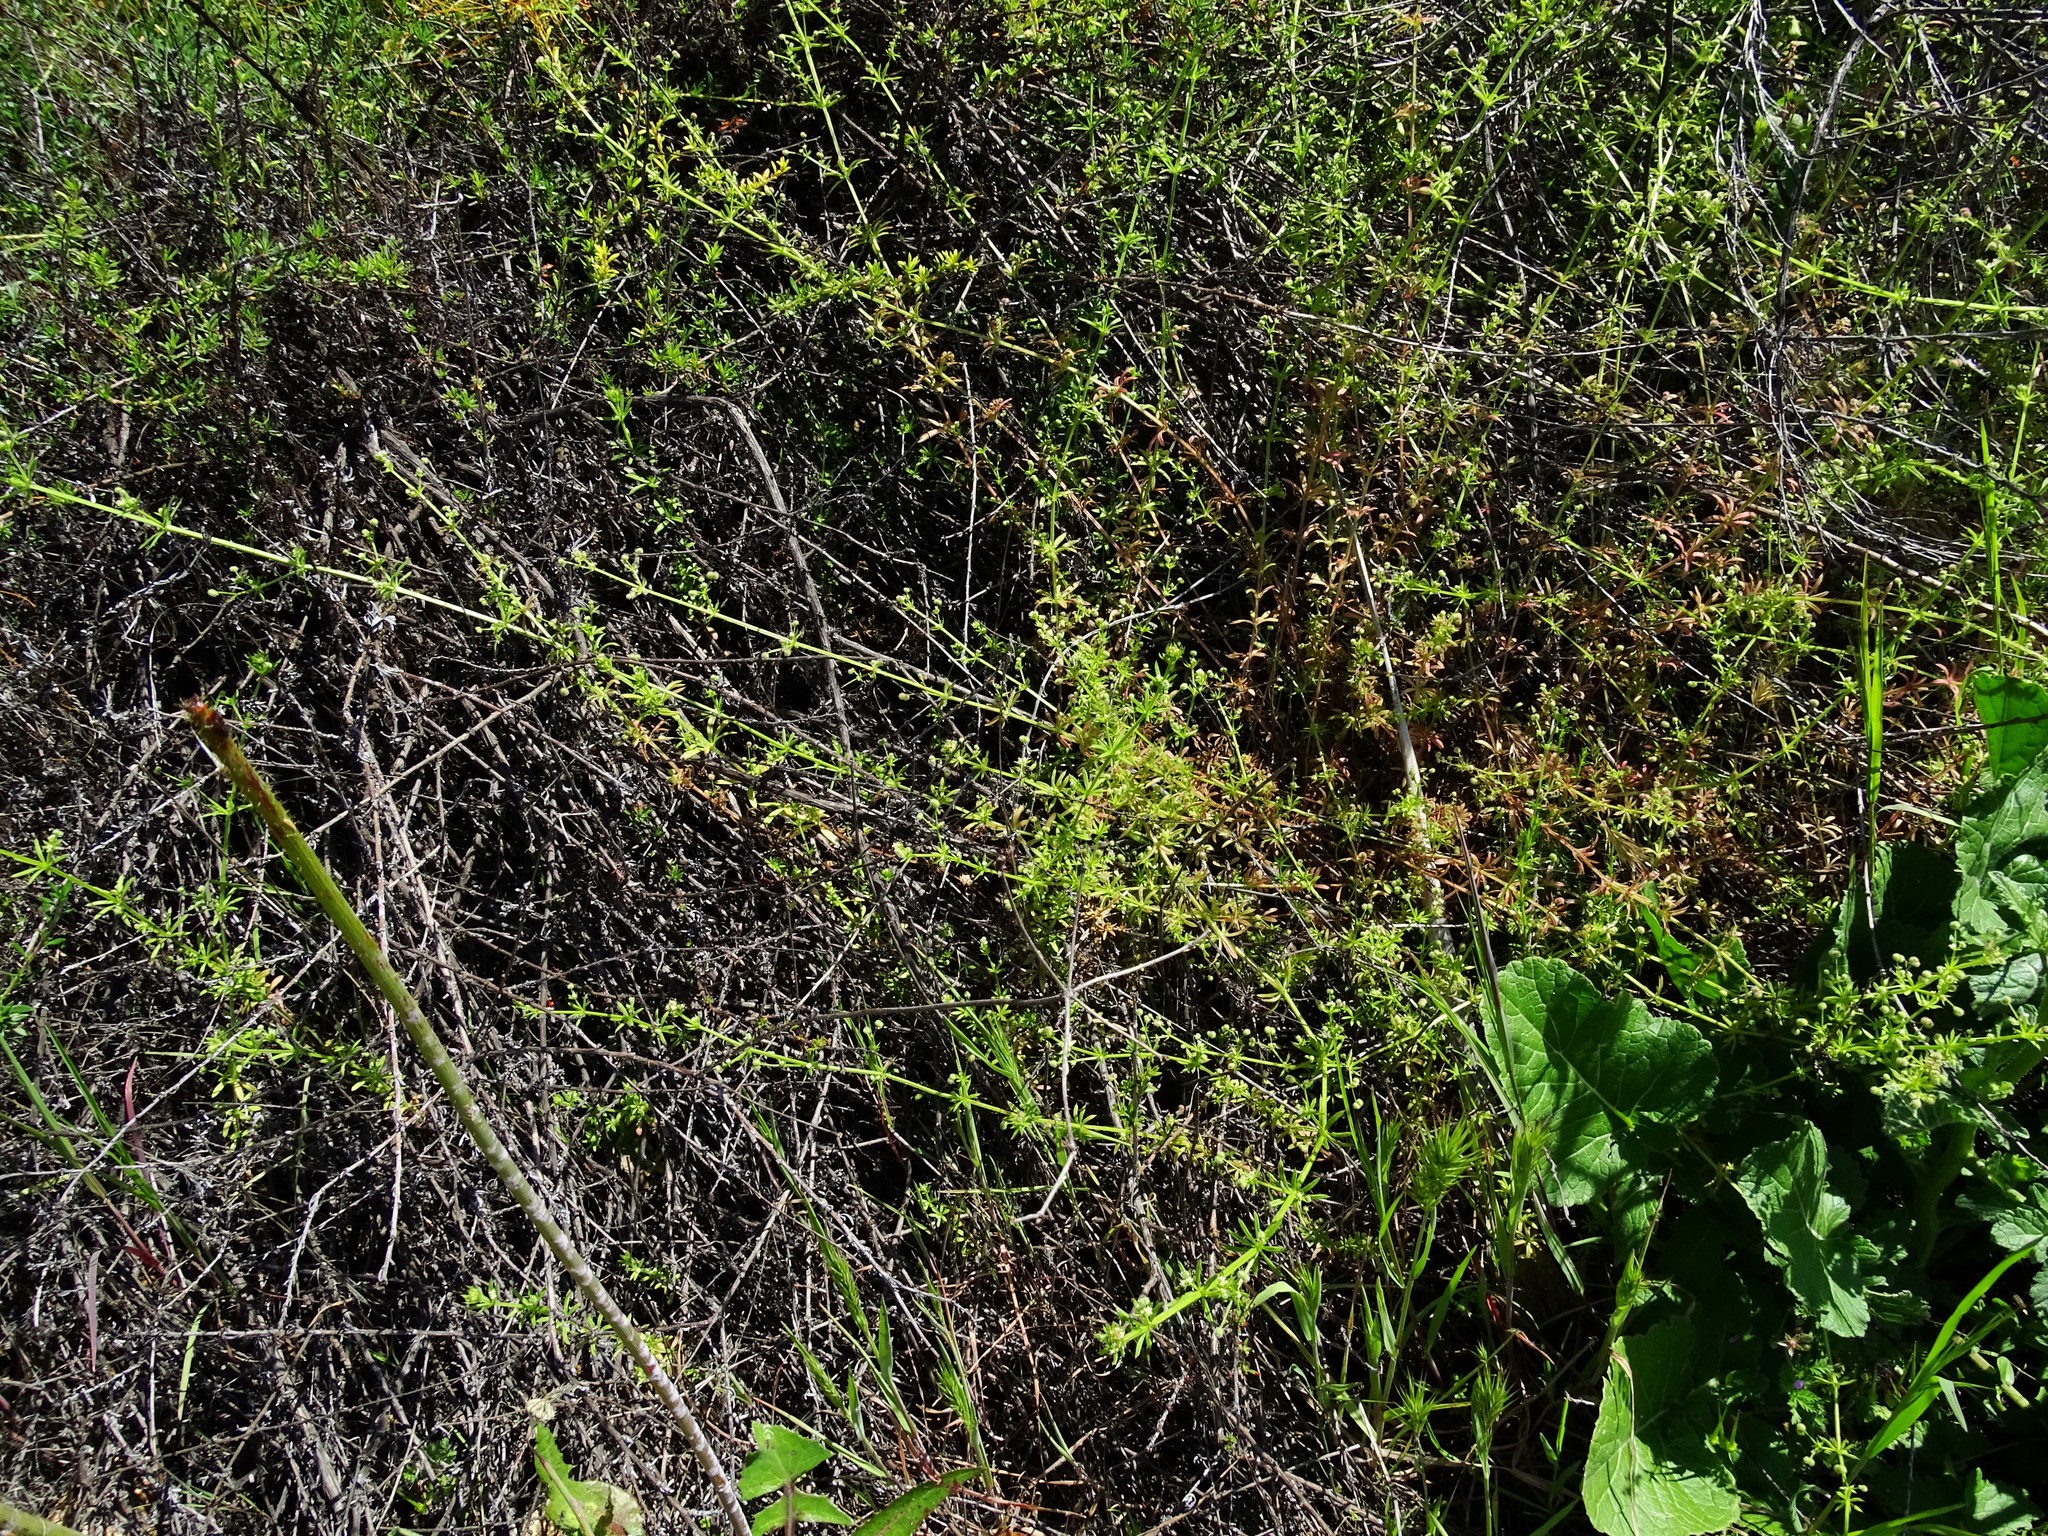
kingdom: Plantae
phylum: Tracheophyta
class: Magnoliopsida
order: Gentianales
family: Rubiaceae
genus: Galium
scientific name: Galium aparine
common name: Cleavers
